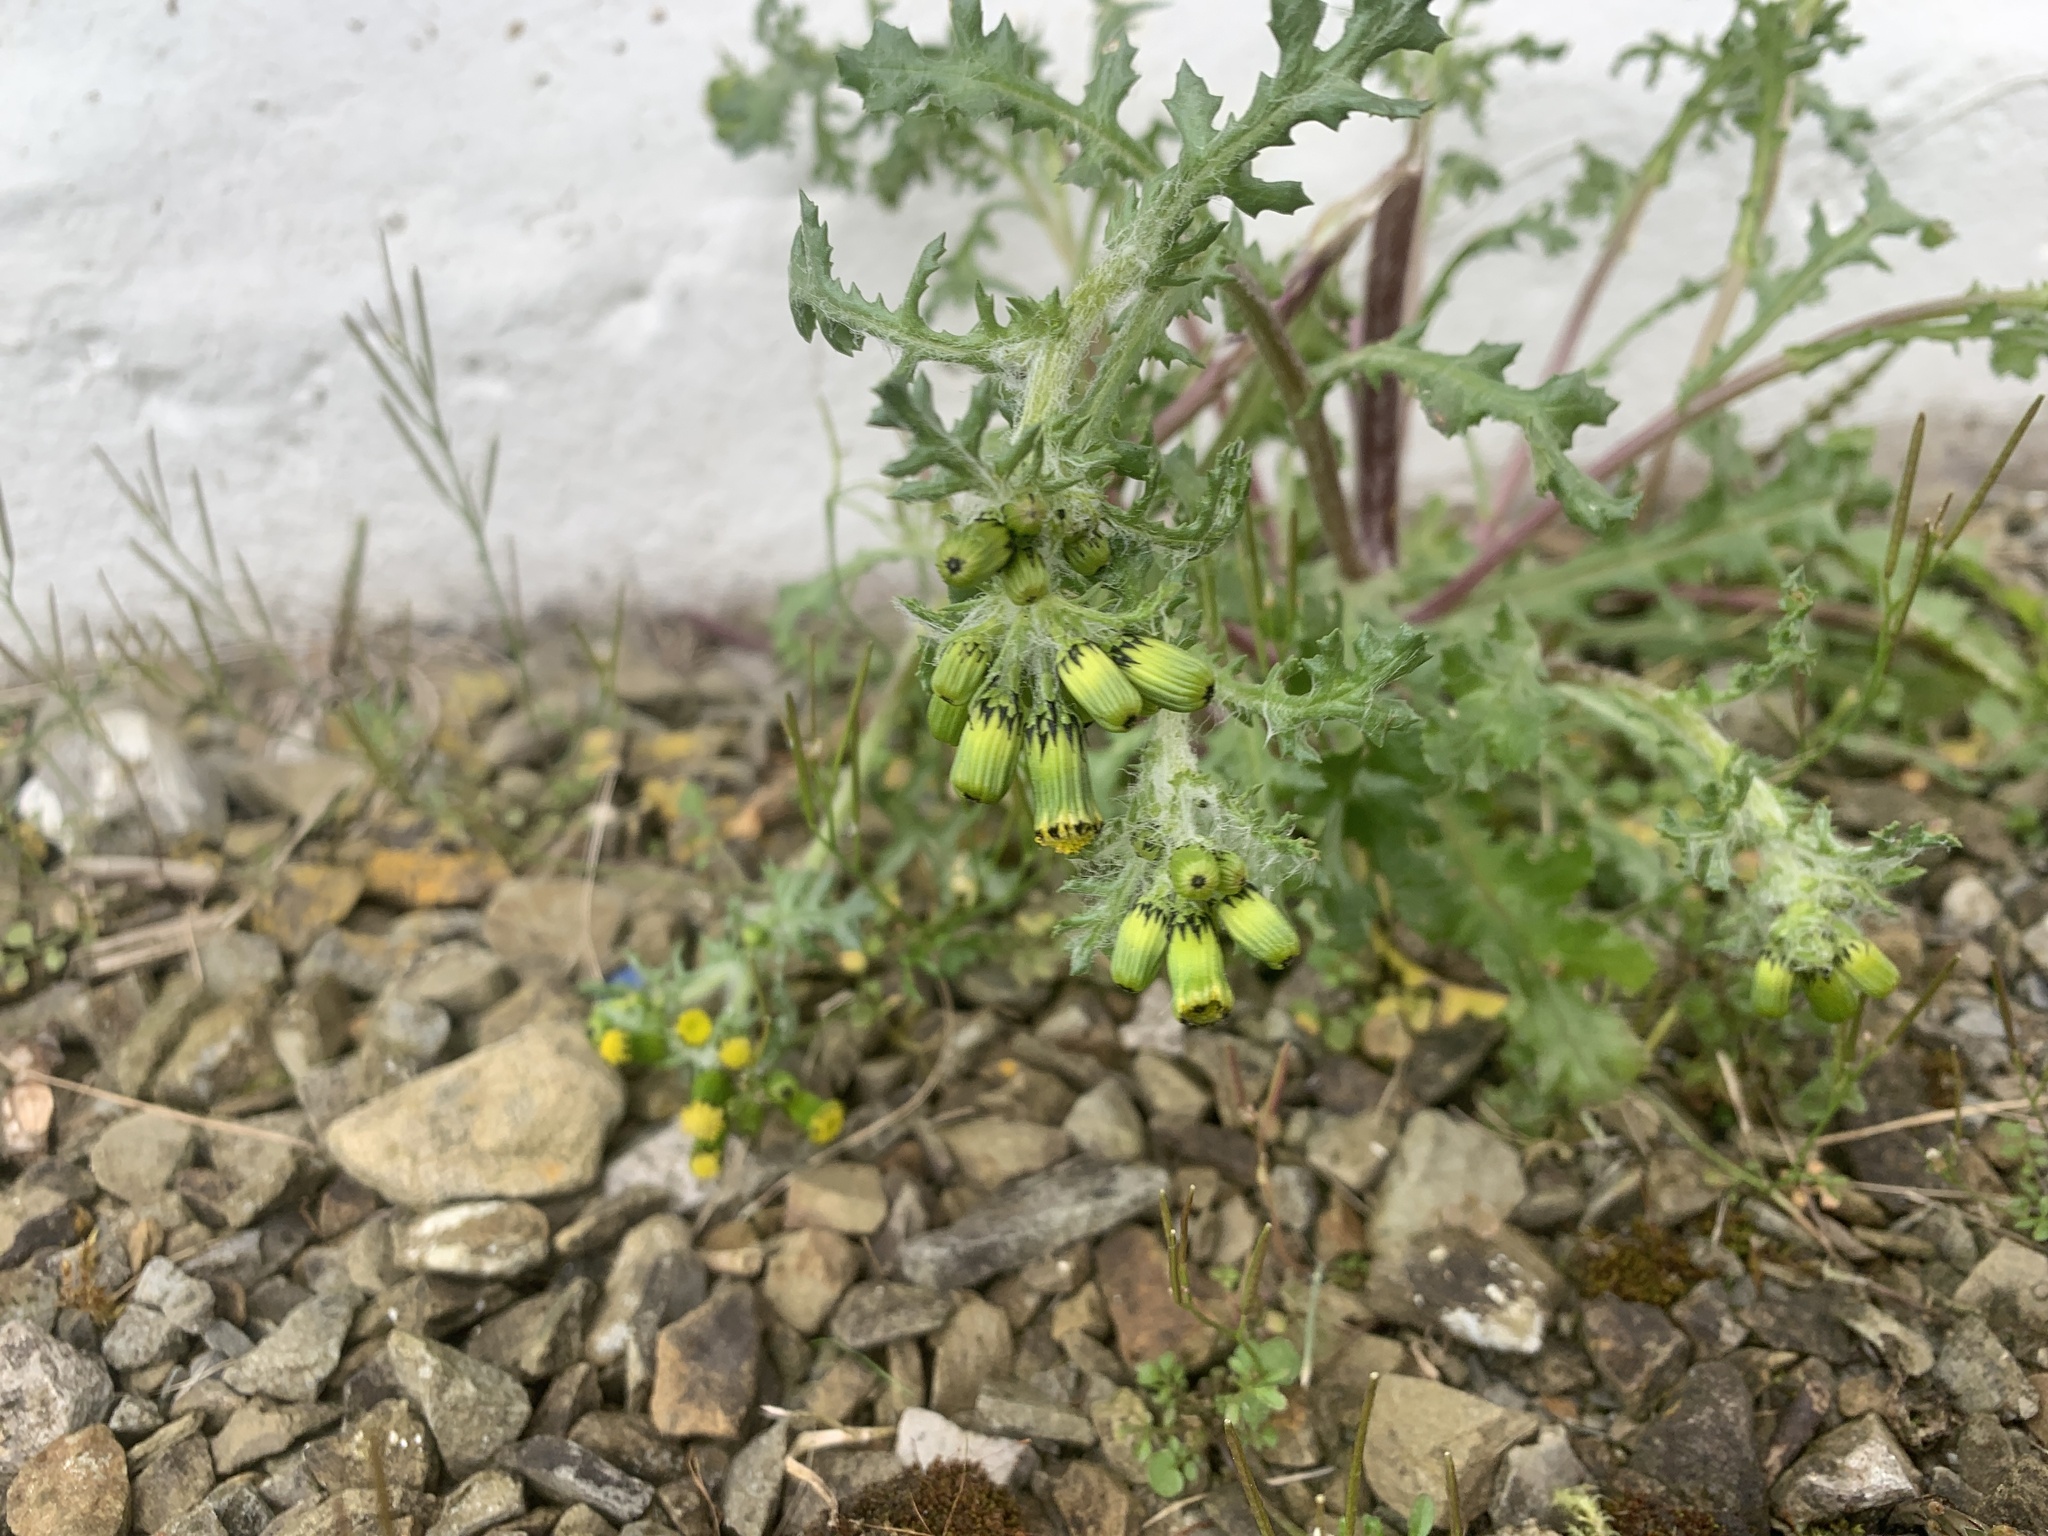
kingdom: Plantae
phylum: Tracheophyta
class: Magnoliopsida
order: Asterales
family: Asteraceae
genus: Senecio
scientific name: Senecio vulgaris
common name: Old-man-in-the-spring
